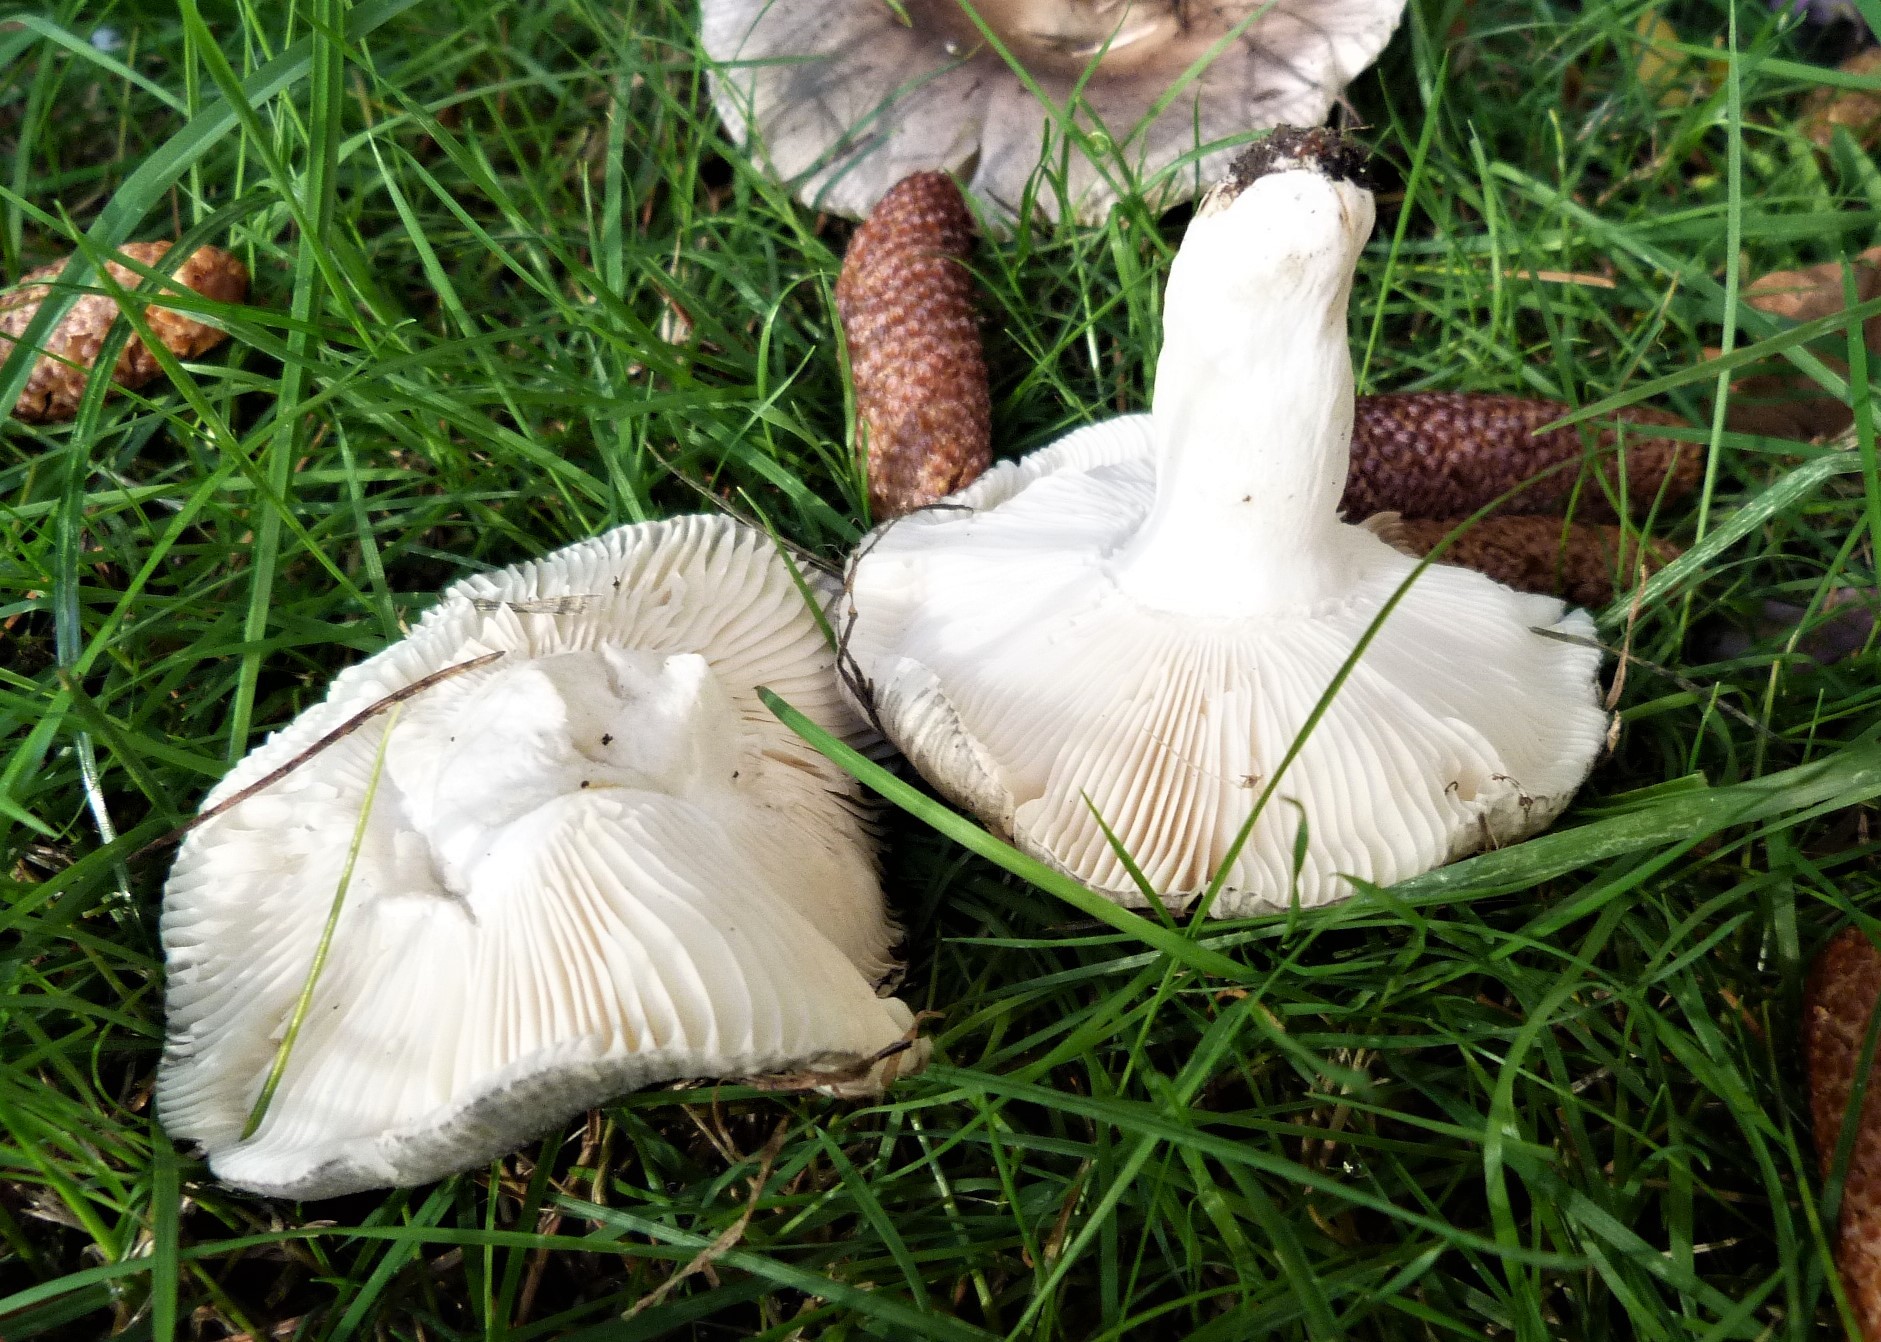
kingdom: Fungi
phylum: Basidiomycota
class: Agaricomycetes
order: Russulales
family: Russulaceae
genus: Russula
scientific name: Russula grisea
